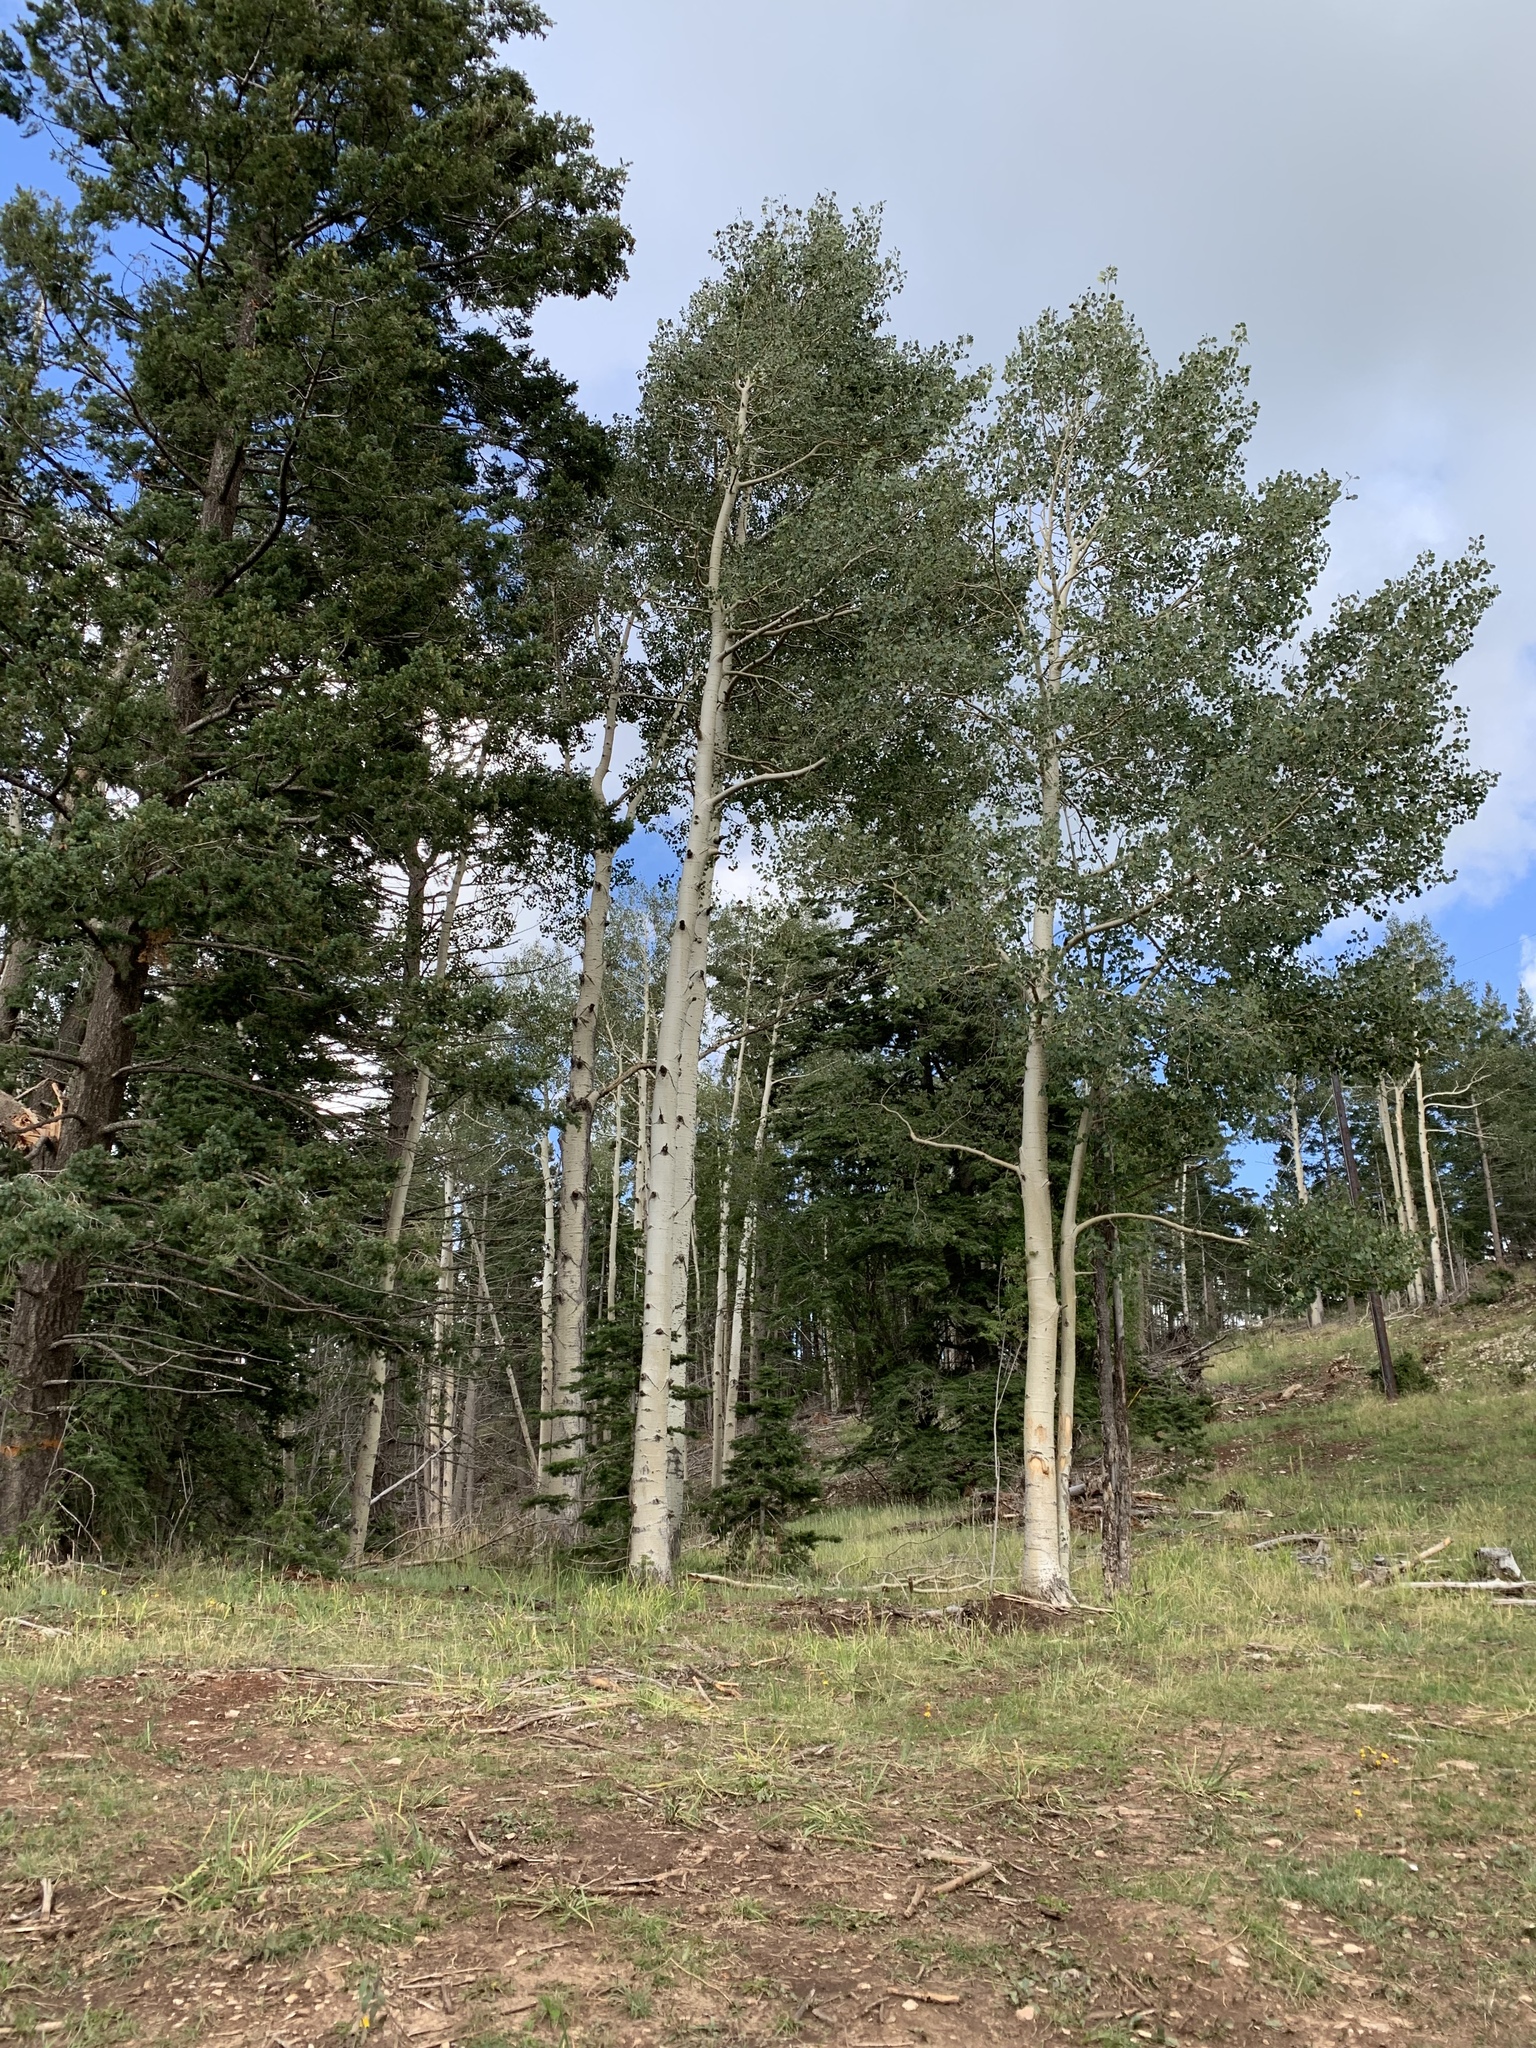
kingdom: Plantae
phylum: Tracheophyta
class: Magnoliopsida
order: Malpighiales
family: Salicaceae
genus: Populus
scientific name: Populus tremuloides
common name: Quaking aspen
